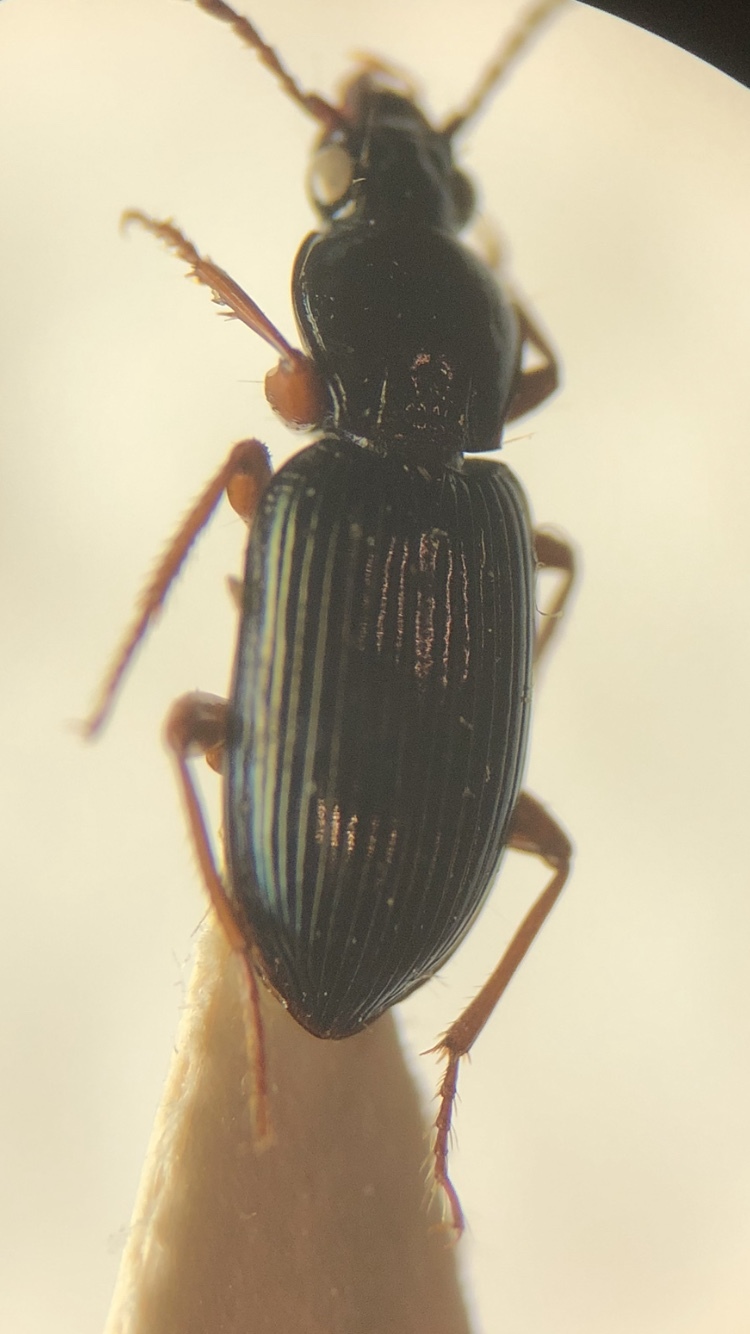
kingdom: Animalia
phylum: Arthropoda
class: Insecta
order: Coleoptera
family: Carabidae
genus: Abacetus
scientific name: Abacetus salzmanni
